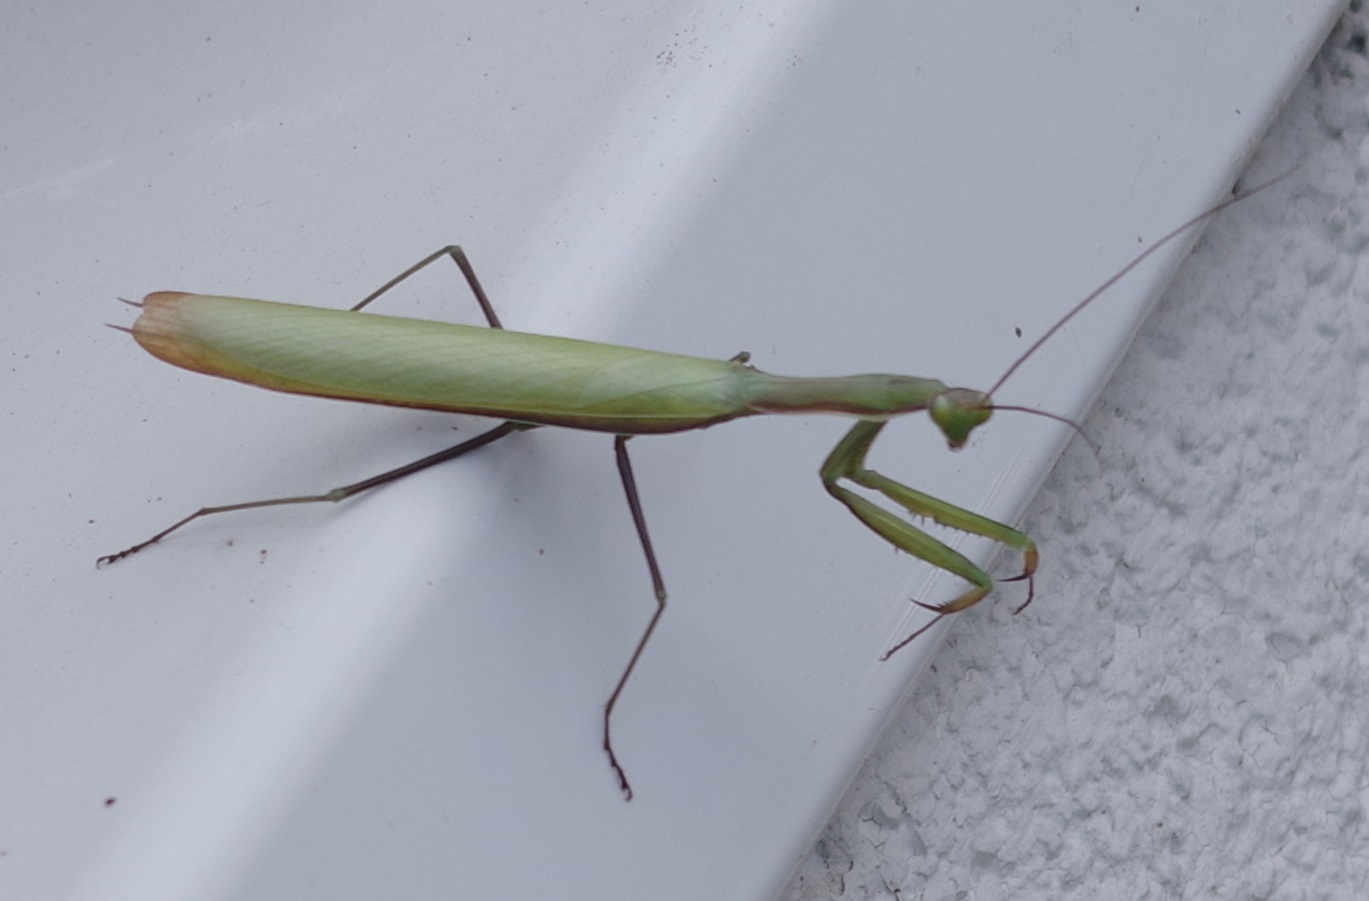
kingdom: Animalia
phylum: Arthropoda
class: Insecta
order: Mantodea
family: Mantidae
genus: Mantis
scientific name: Mantis religiosa
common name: Praying mantis
